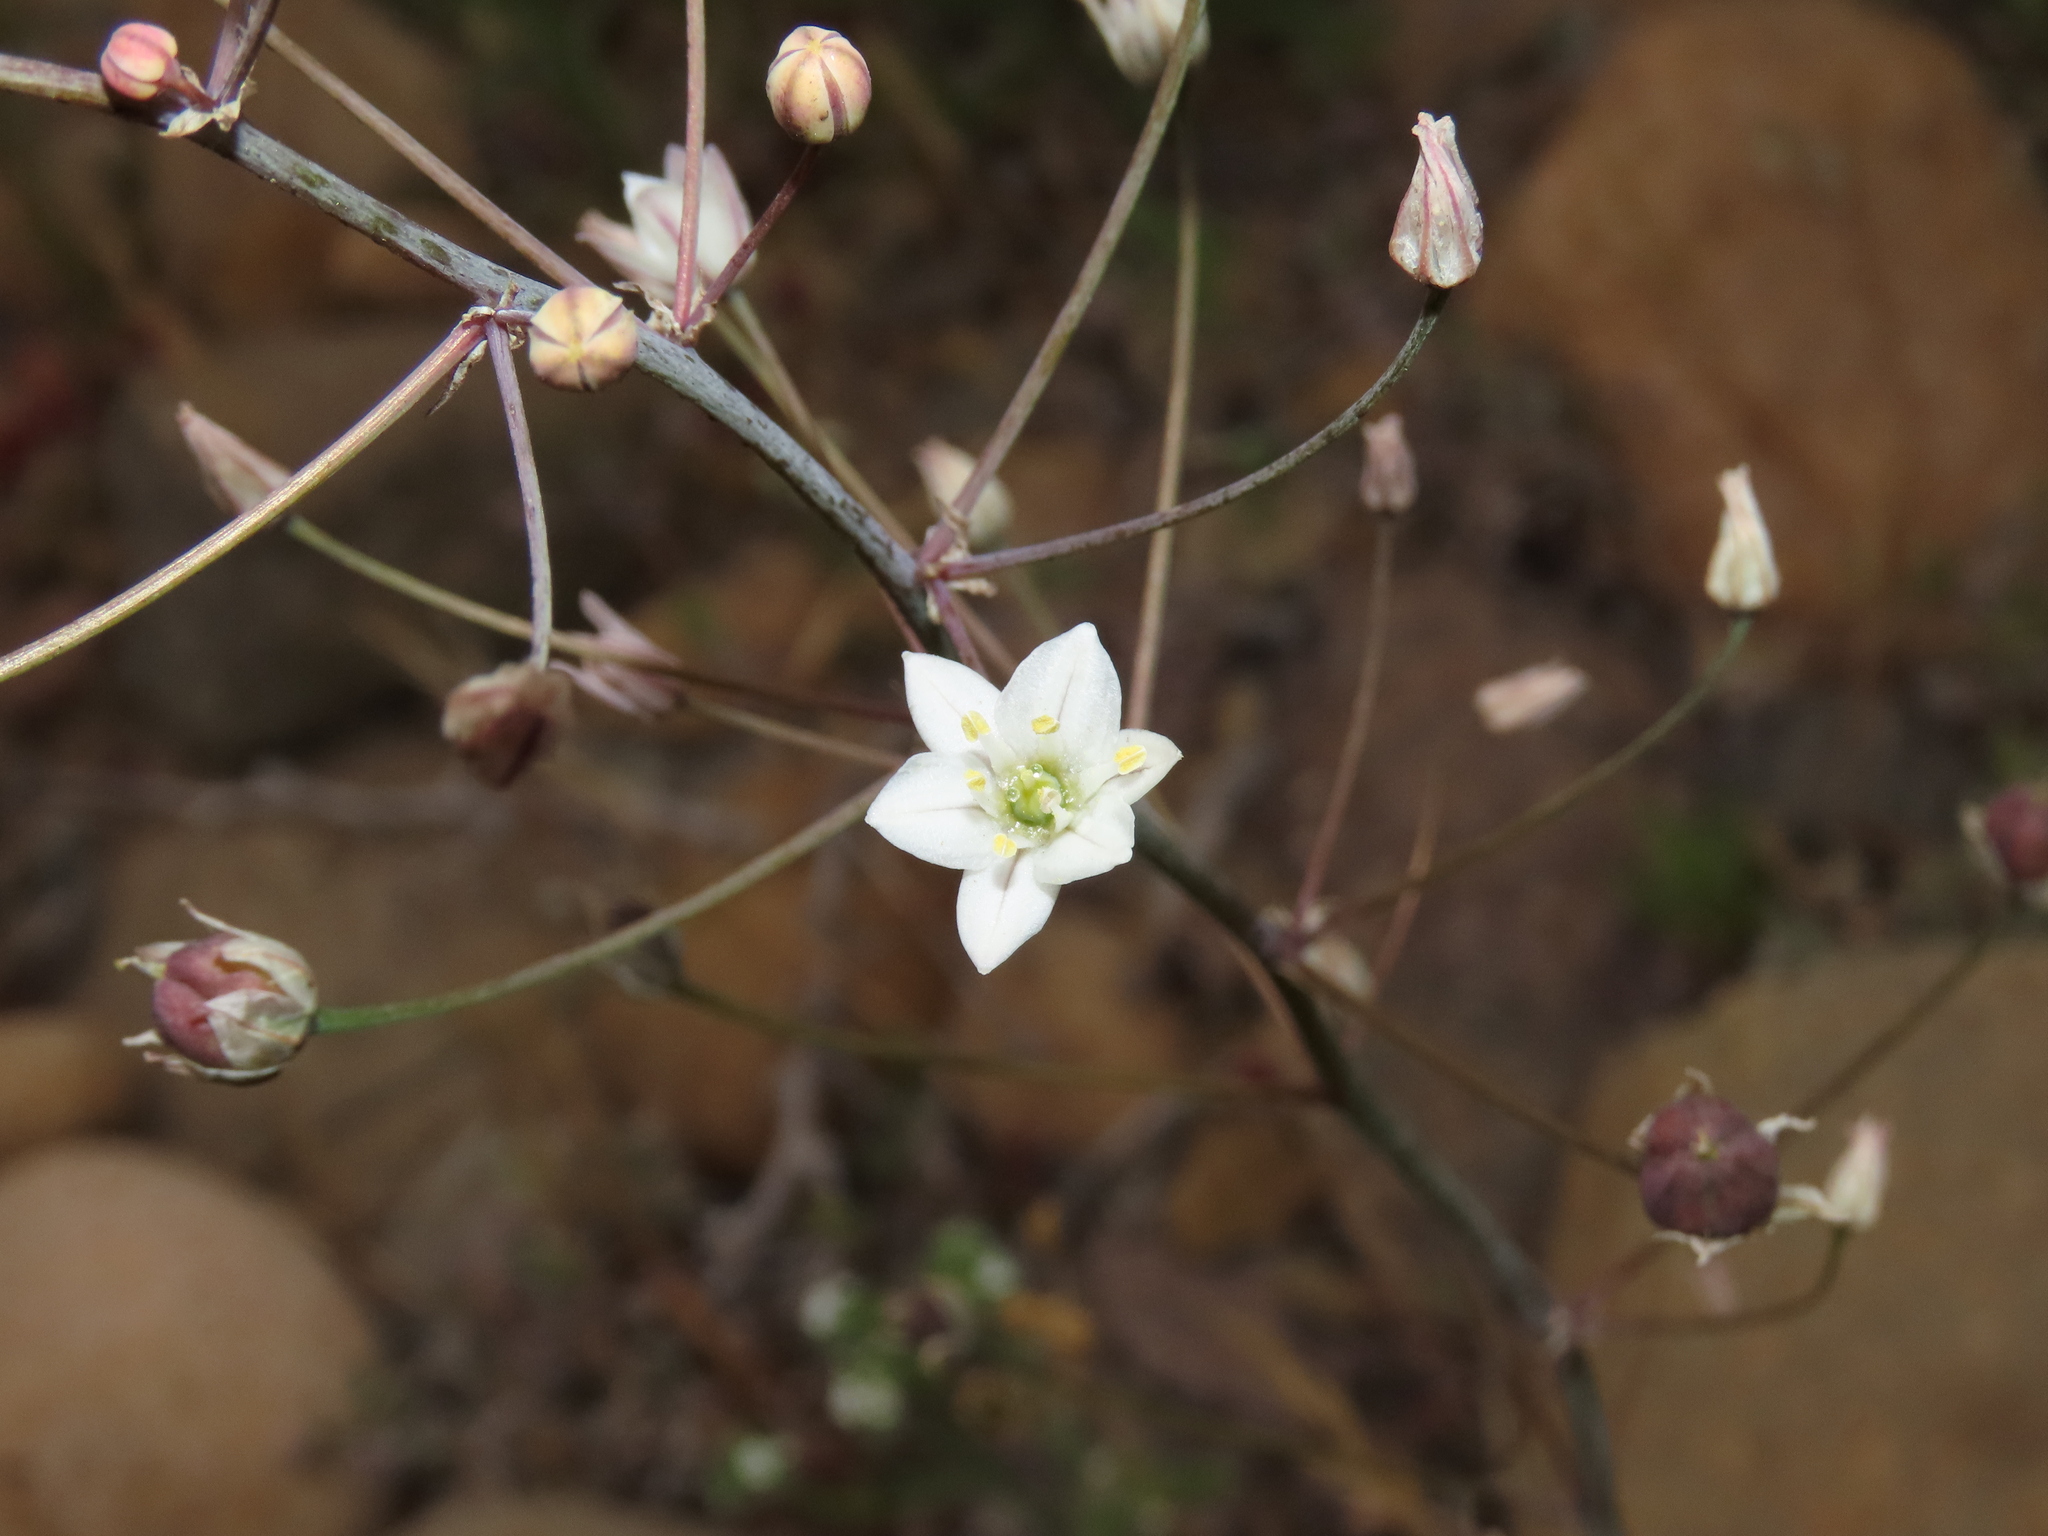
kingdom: Plantae
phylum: Tracheophyta
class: Liliopsida
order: Asparagales
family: Asparagaceae
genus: Oziroe
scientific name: Oziroe biflora
